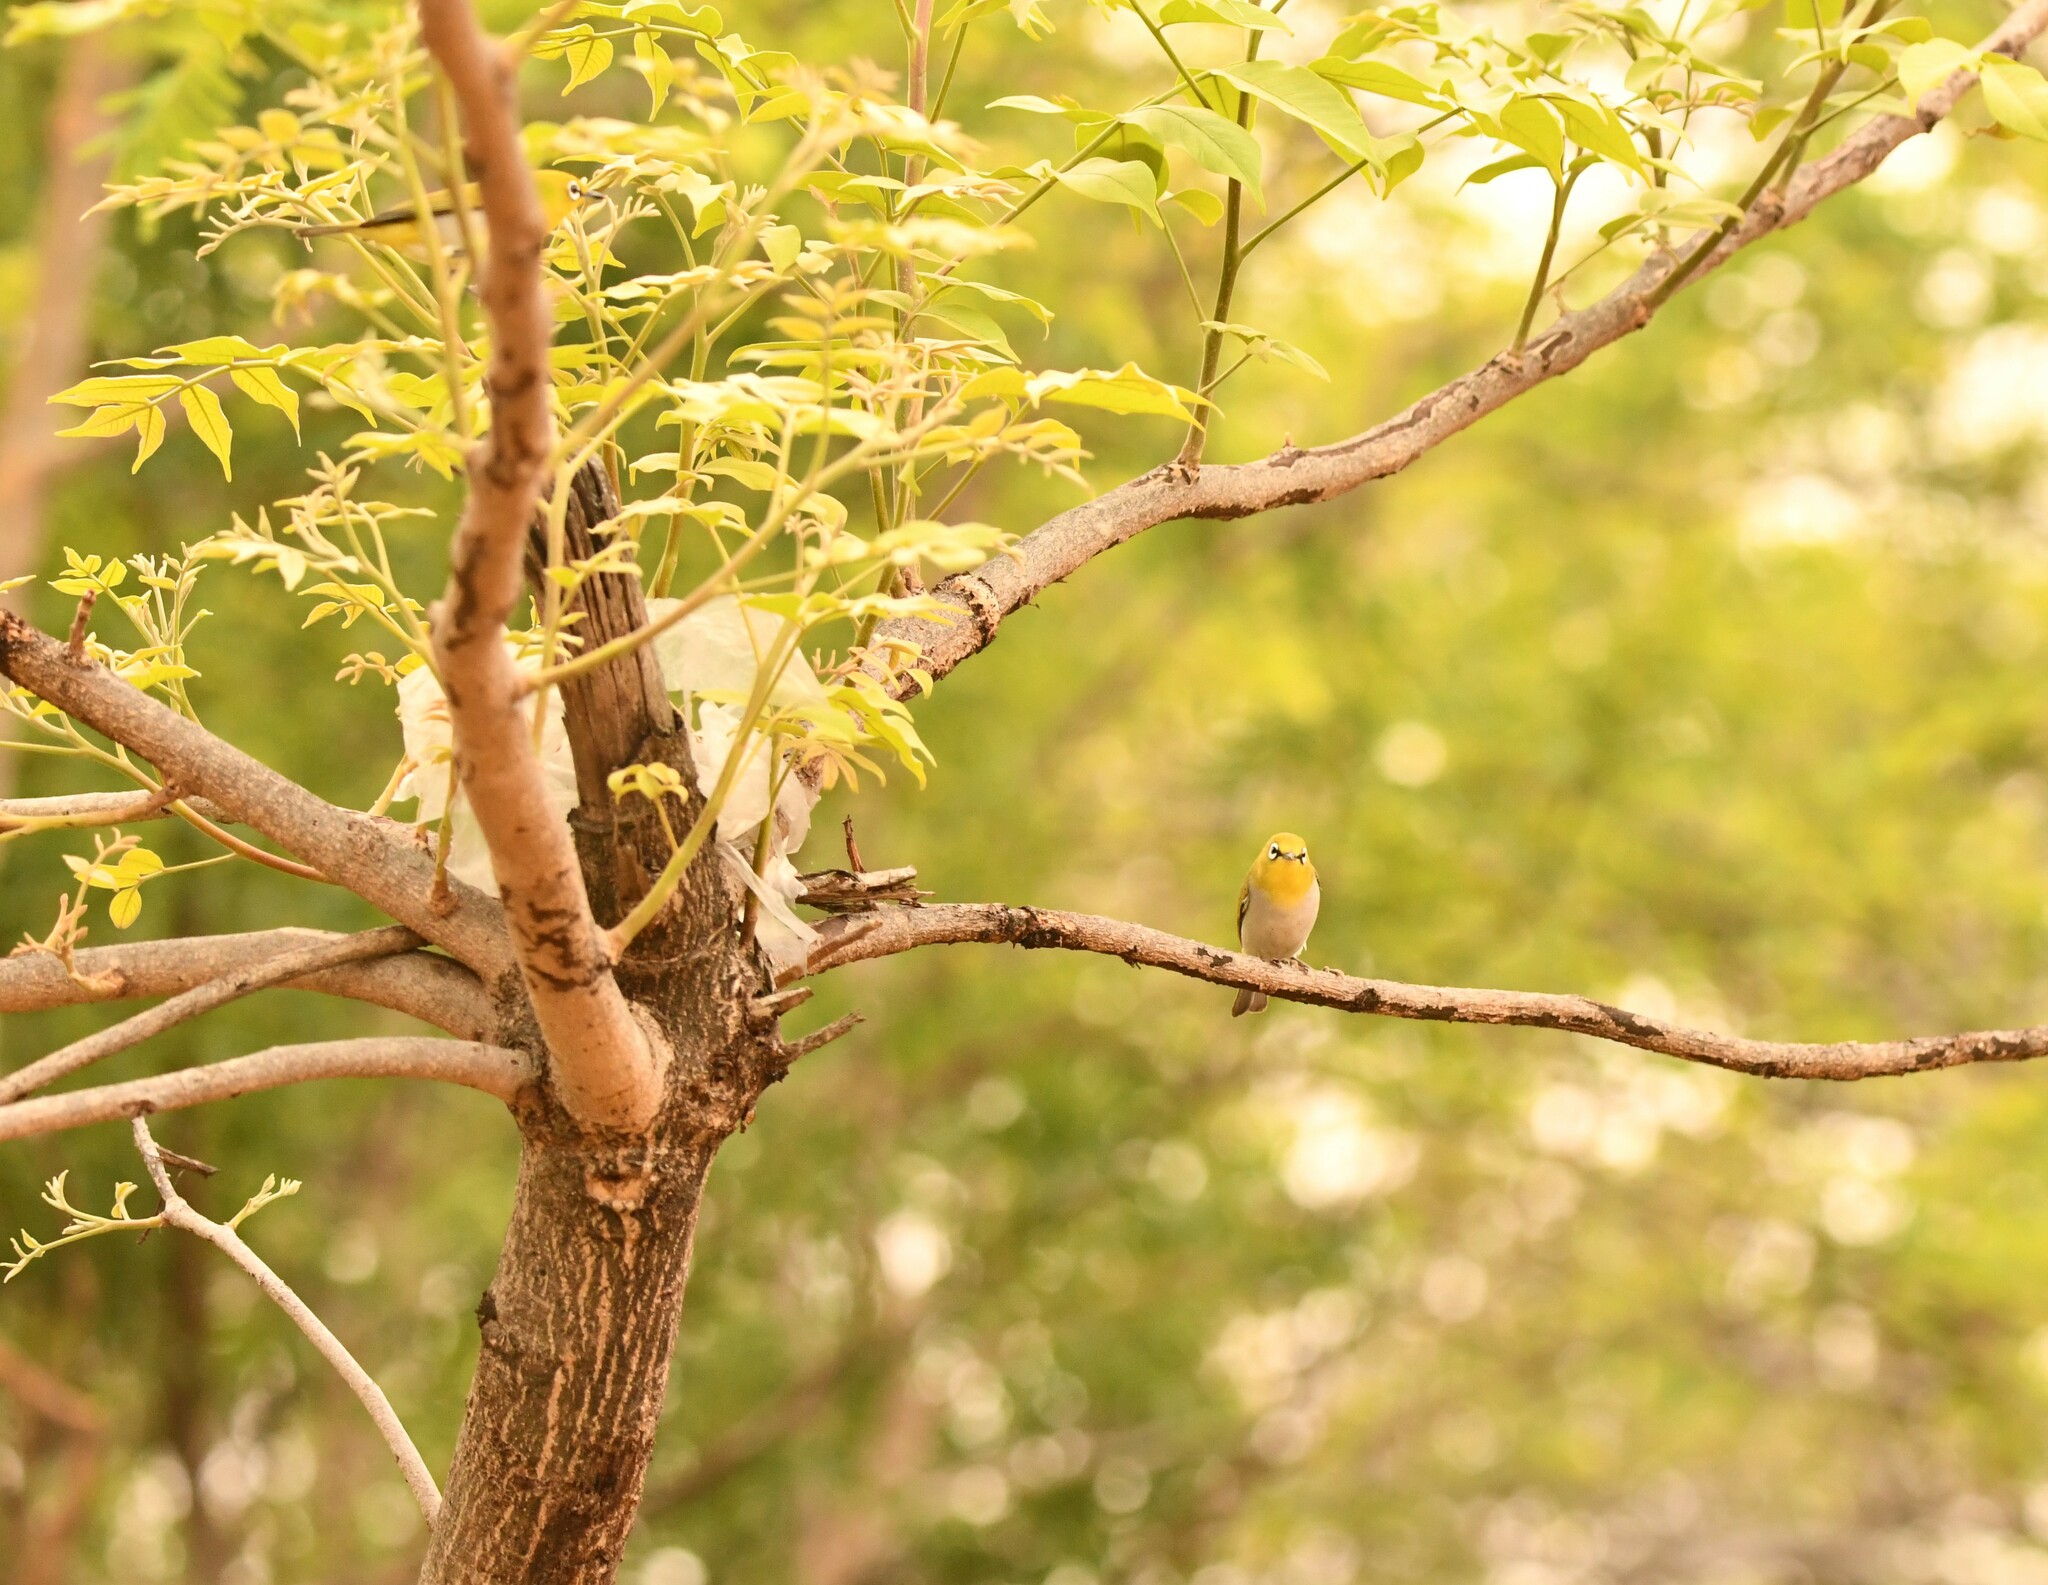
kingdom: Animalia
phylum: Chordata
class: Aves
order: Passeriformes
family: Zosteropidae
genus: Zosterops
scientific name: Zosterops palpebrosus
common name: Oriental white-eye
